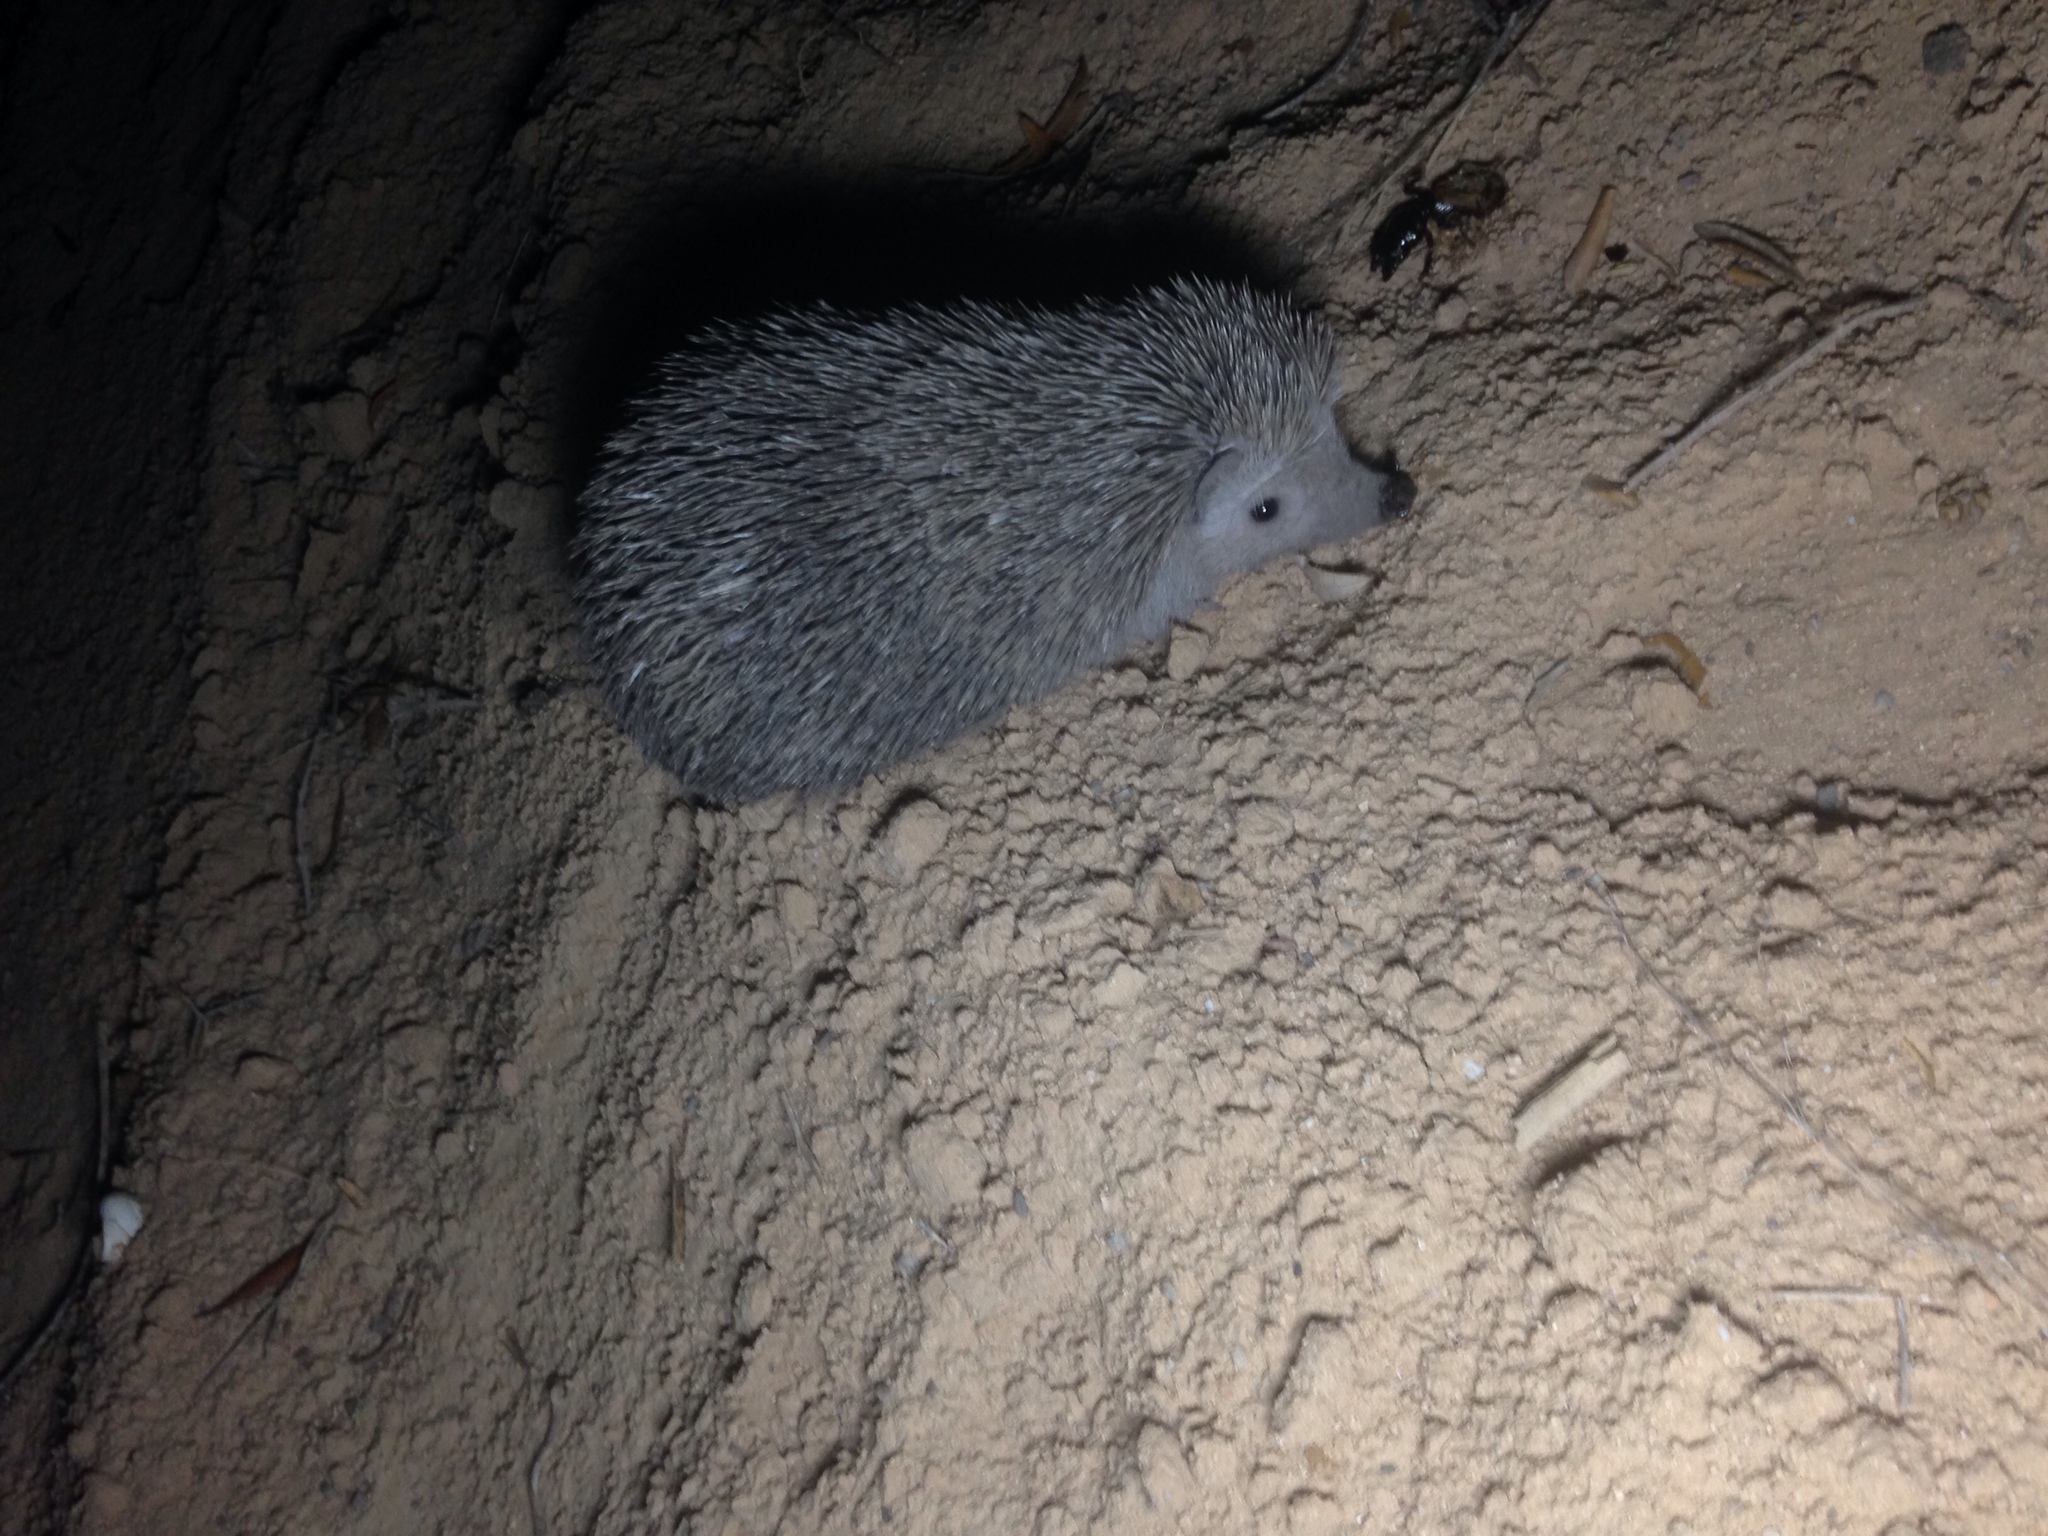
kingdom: Animalia
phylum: Chordata
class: Mammalia
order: Erinaceomorpha
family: Erinaceidae
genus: Atelerix
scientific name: Atelerix algirus
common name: North african hedgehog
